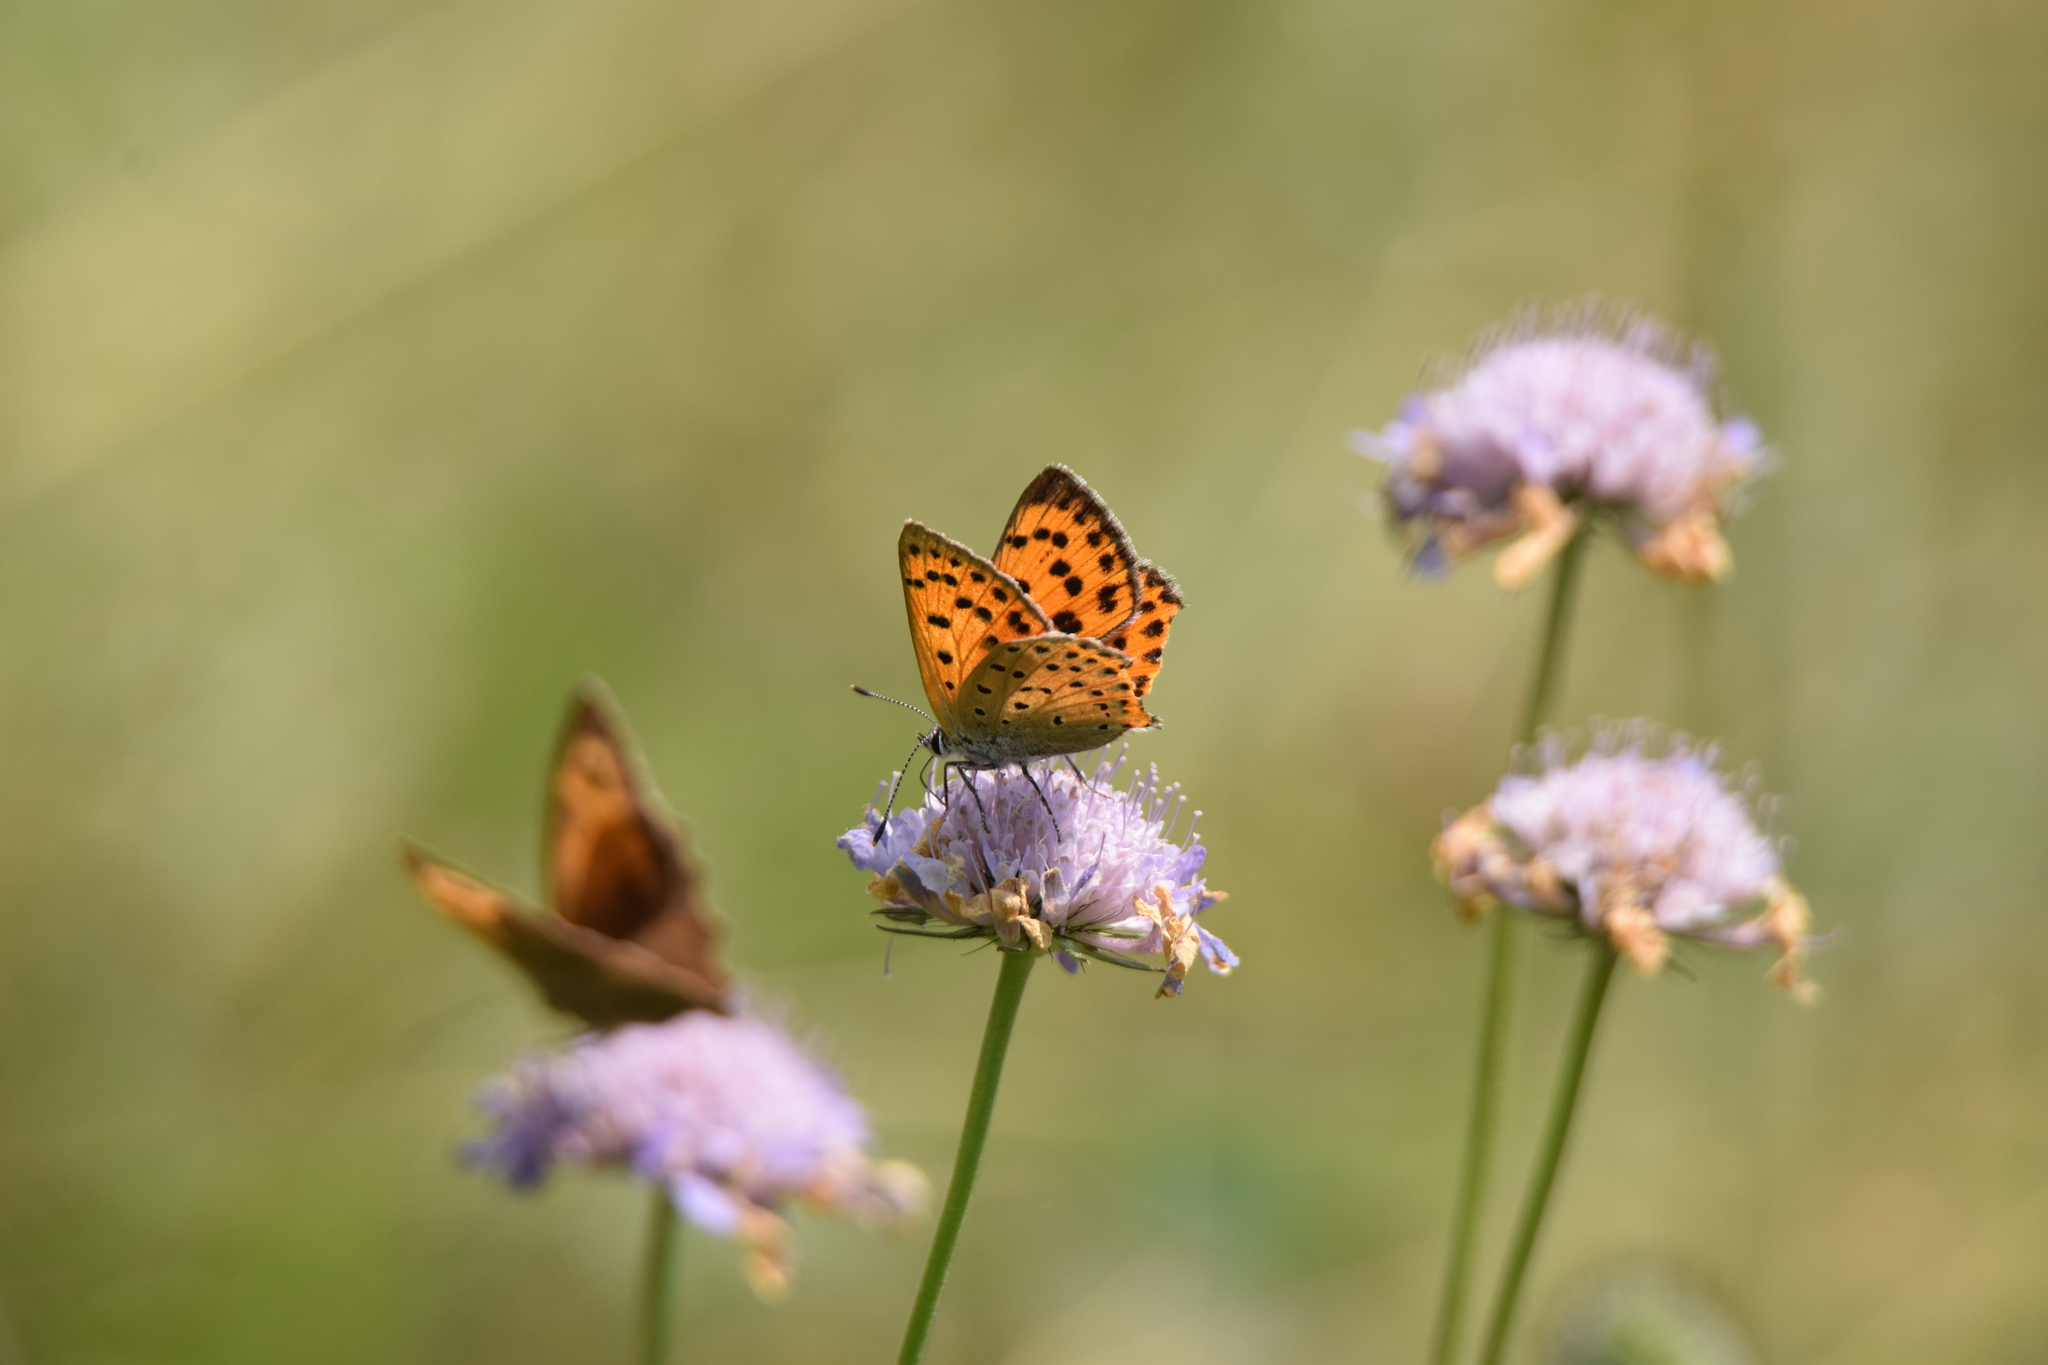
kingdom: Animalia
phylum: Arthropoda
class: Insecta
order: Lepidoptera
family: Lycaenidae
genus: Lycaena
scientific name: Lycaena alciphron
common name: Purple-shot copper
